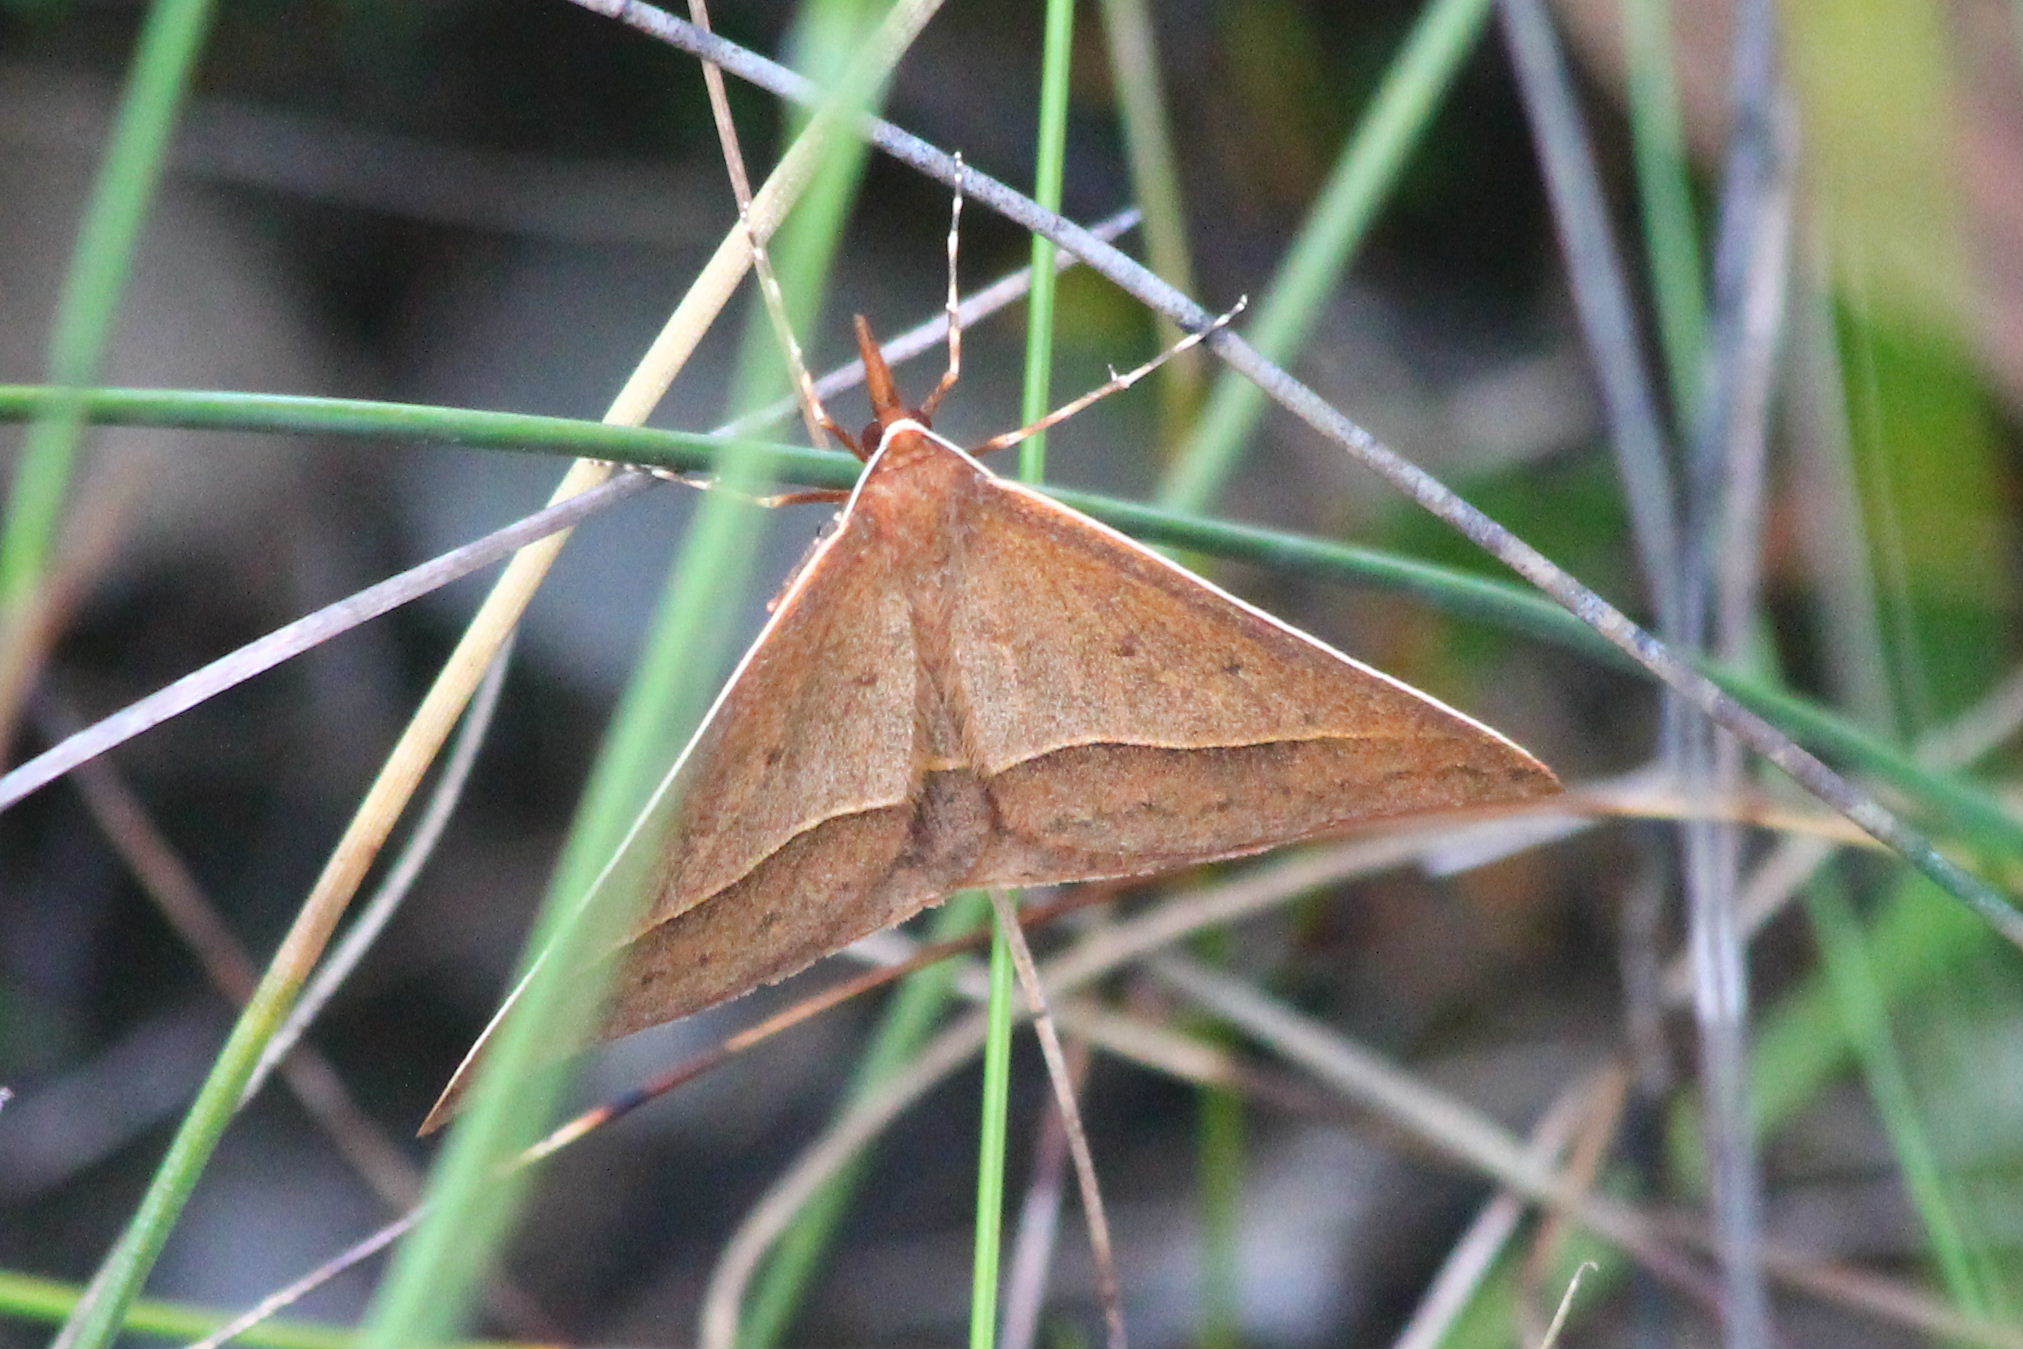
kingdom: Animalia
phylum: Arthropoda
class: Insecta
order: Lepidoptera
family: Geometridae
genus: Epidesmia
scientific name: Epidesmia hypenaria
